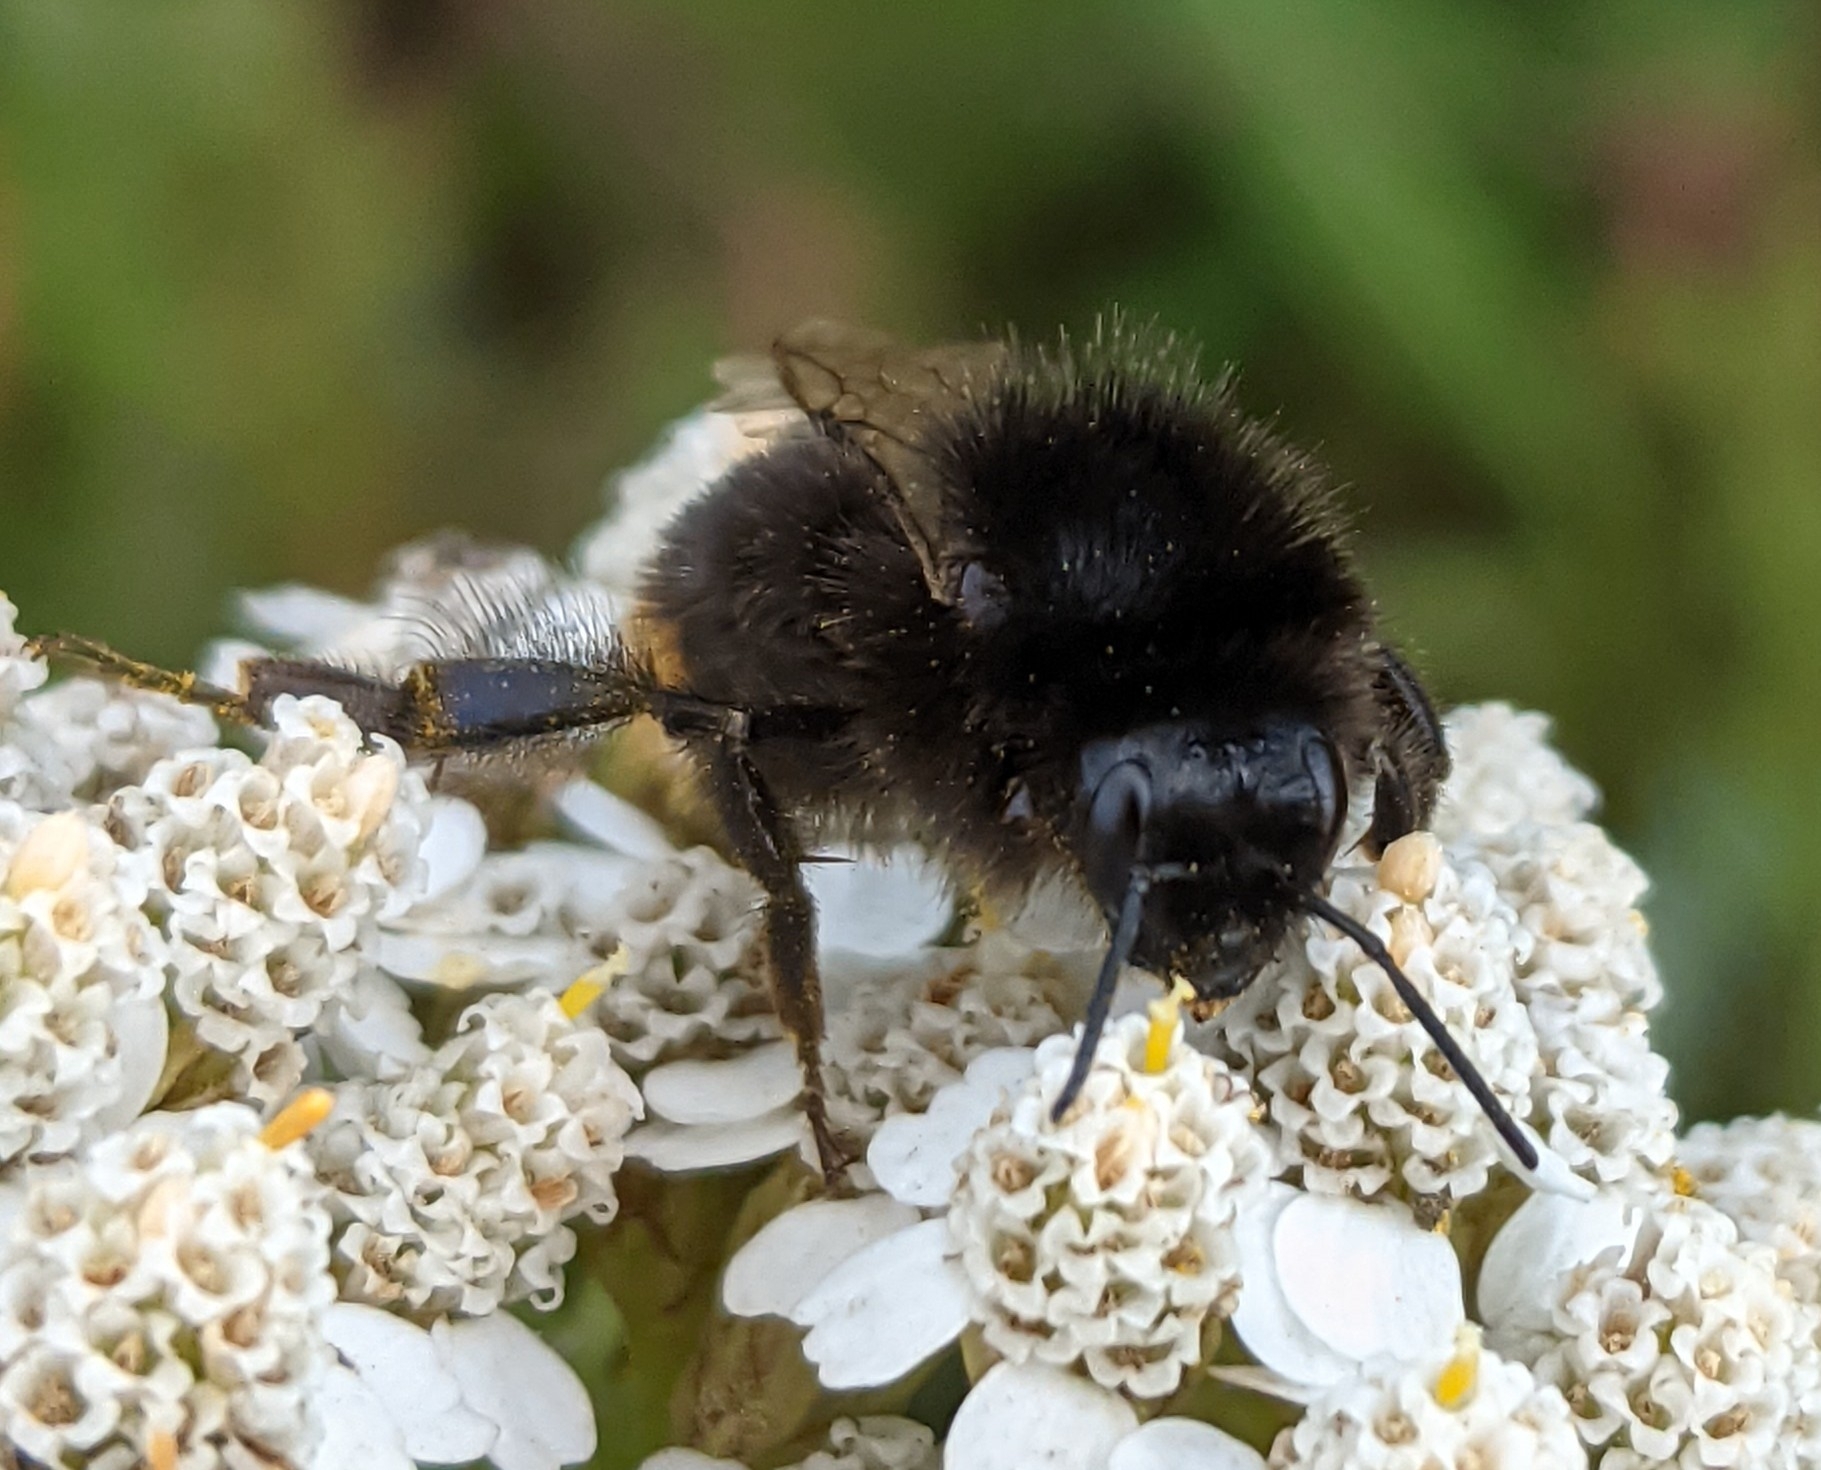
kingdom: Animalia
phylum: Arthropoda
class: Insecta
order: Hymenoptera
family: Apidae
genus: Bombus
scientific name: Bombus ruderarius
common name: Red-shanked carder-bee
